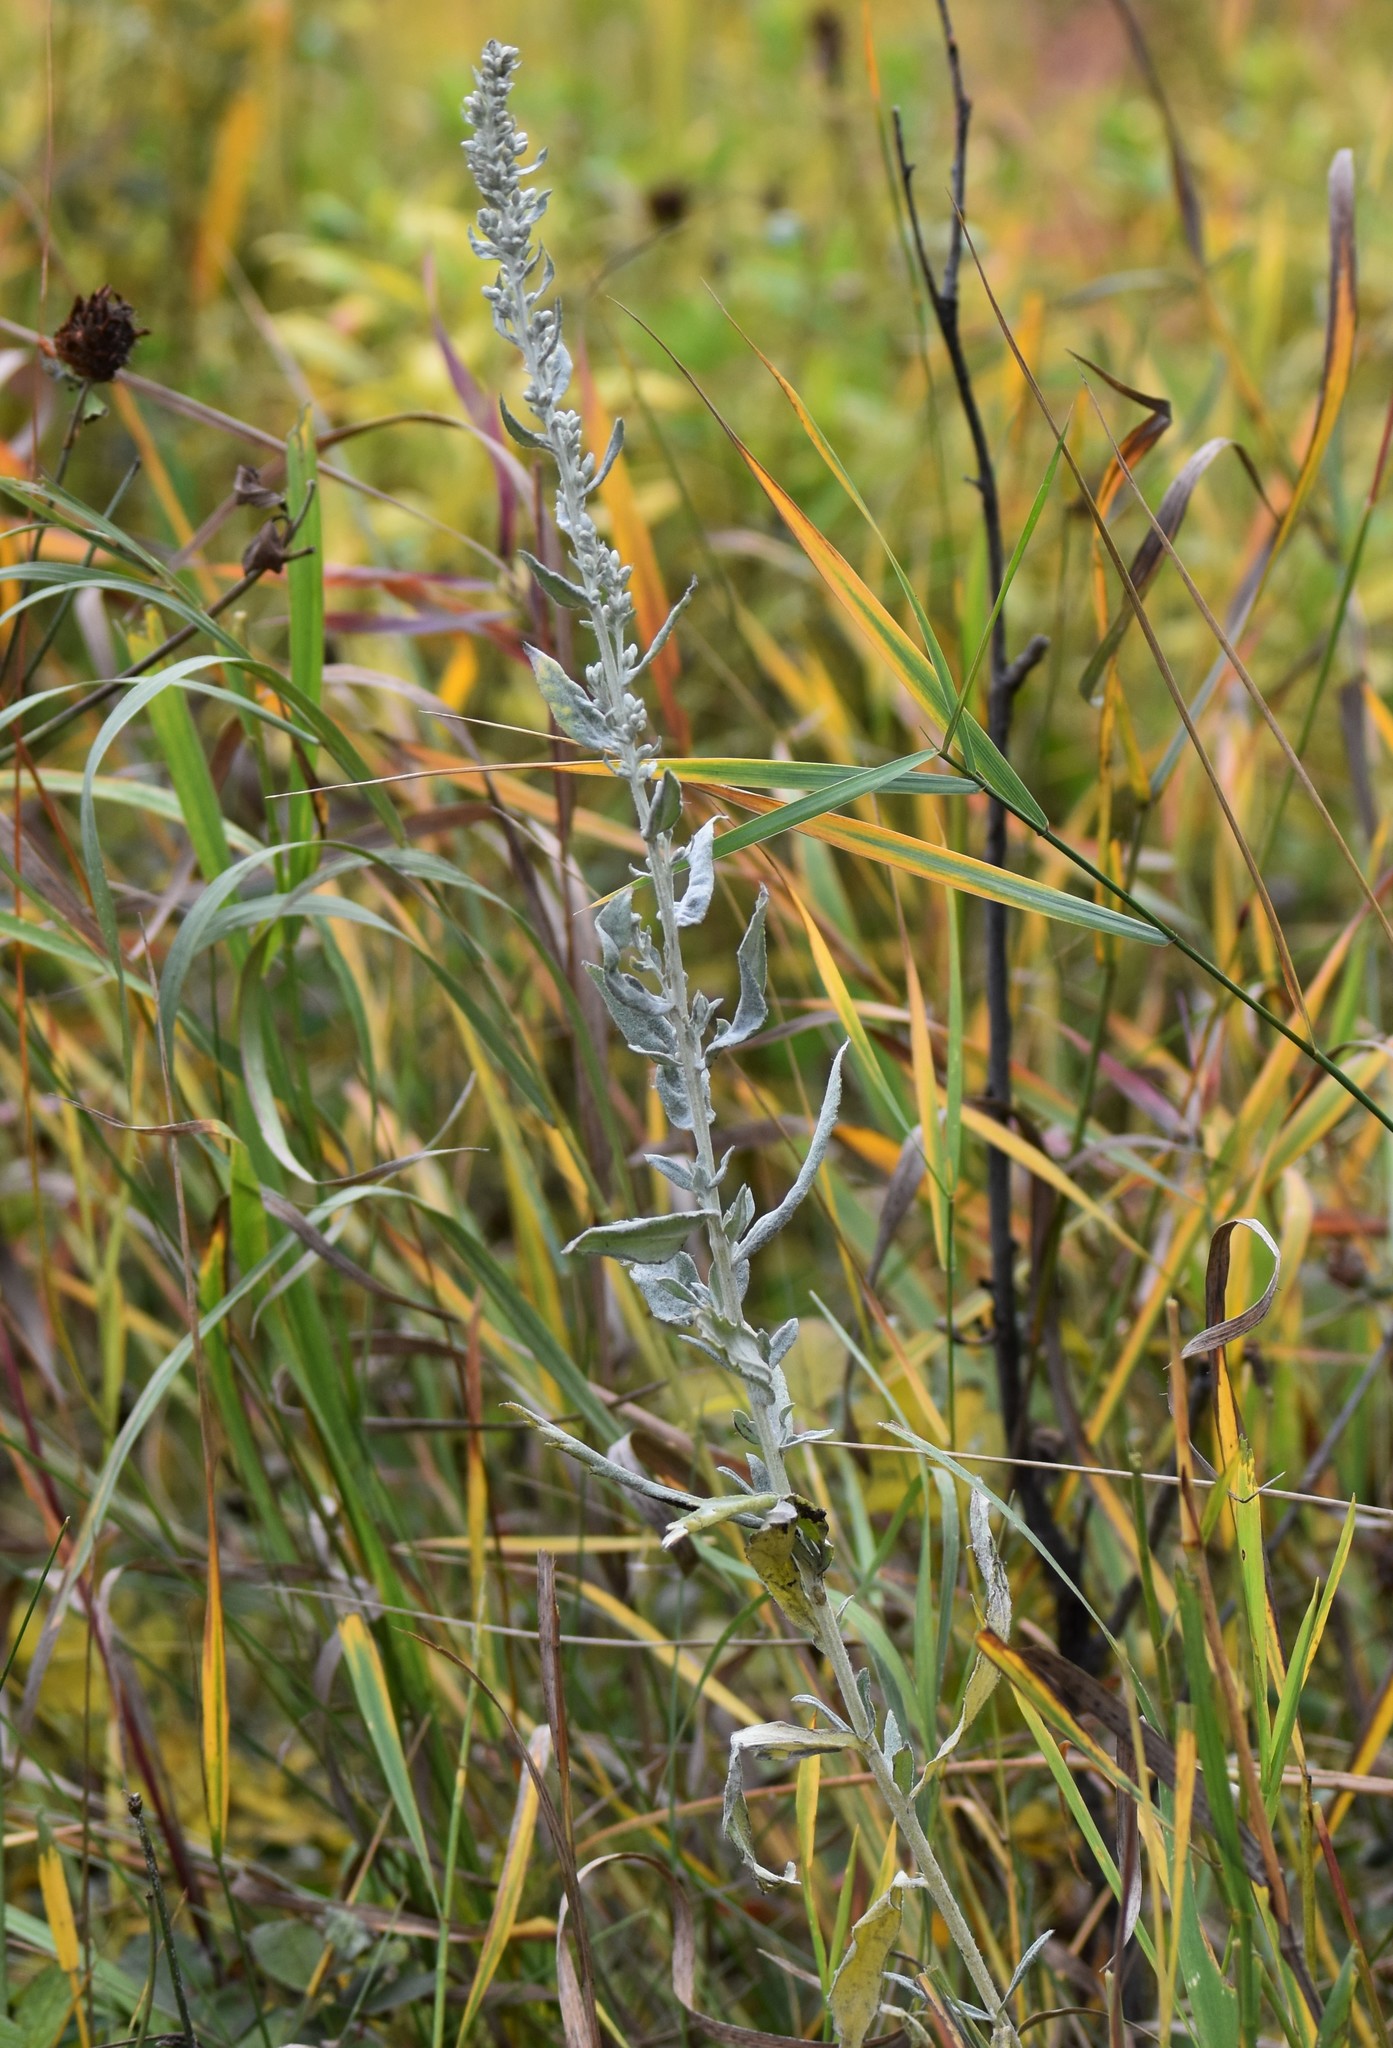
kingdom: Plantae
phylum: Tracheophyta
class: Magnoliopsida
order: Asterales
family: Asteraceae
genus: Artemisia
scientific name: Artemisia ludoviciana
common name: Western mugwort
